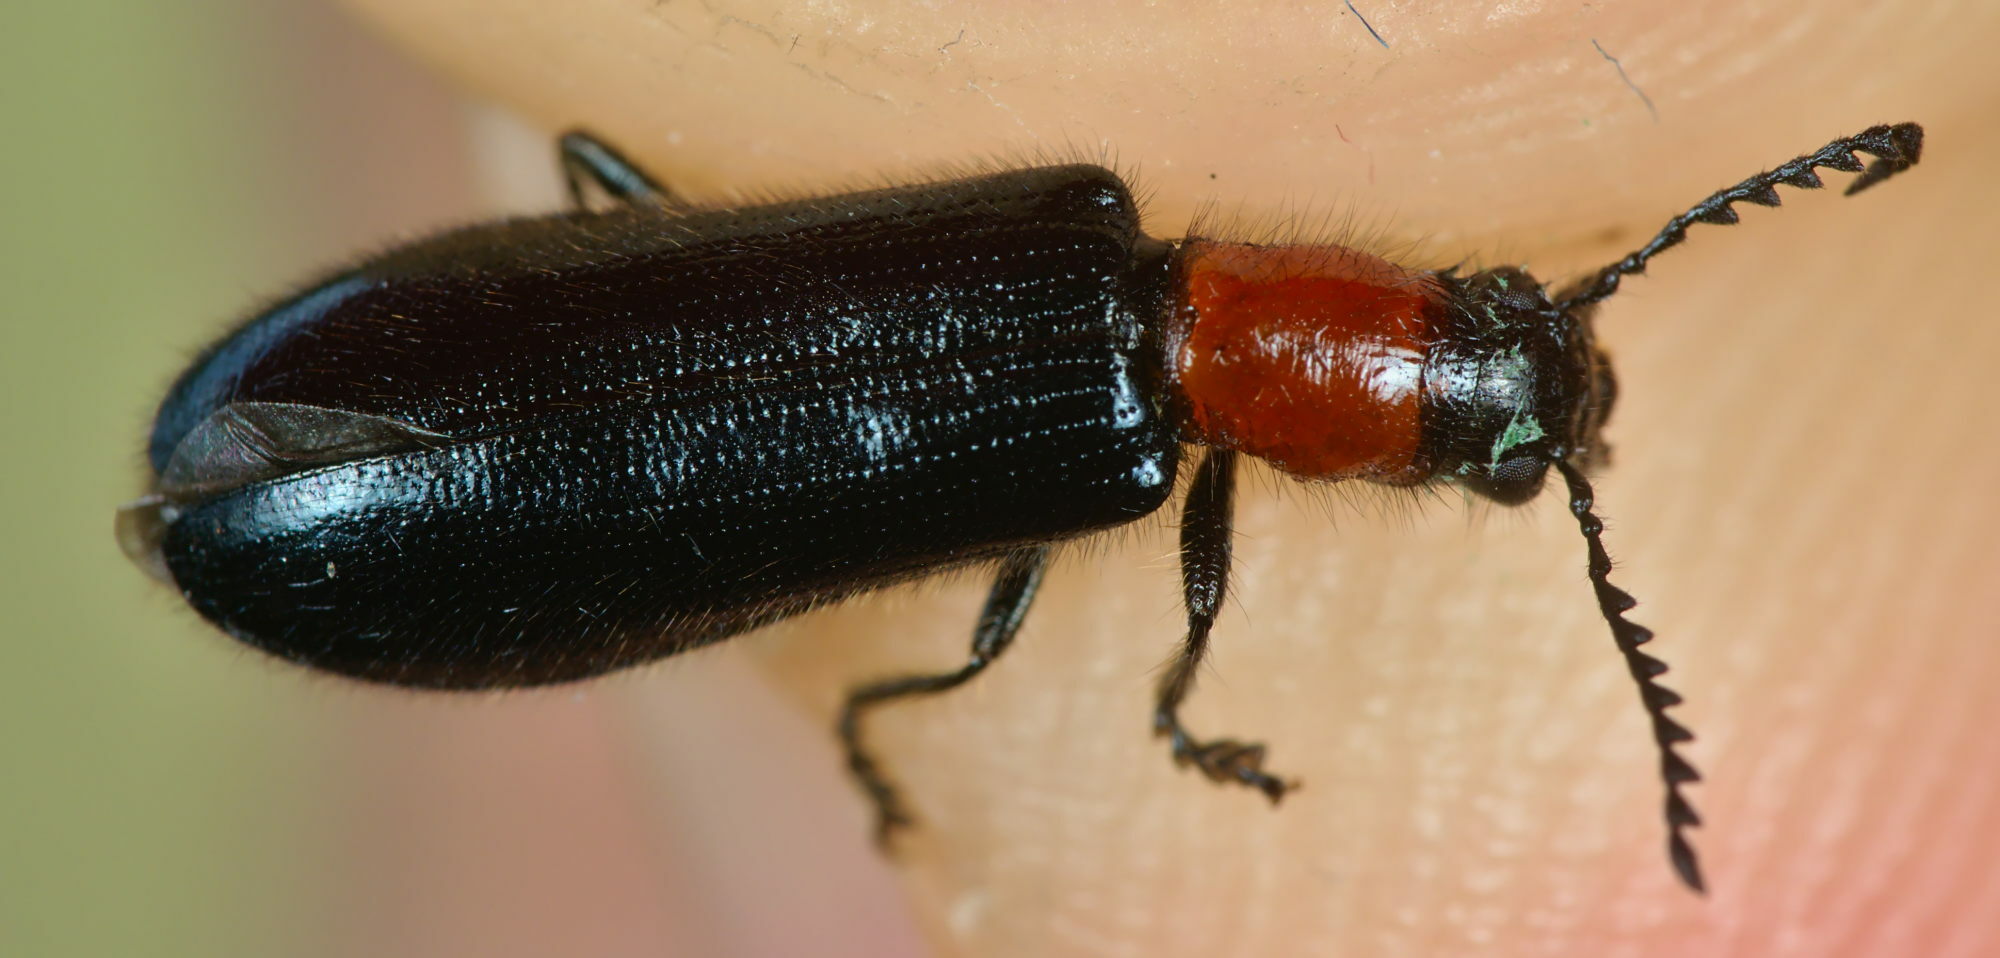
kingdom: Animalia
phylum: Arthropoda
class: Insecta
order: Coleoptera
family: Cleridae
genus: Tillus
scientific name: Tillus elongatus
